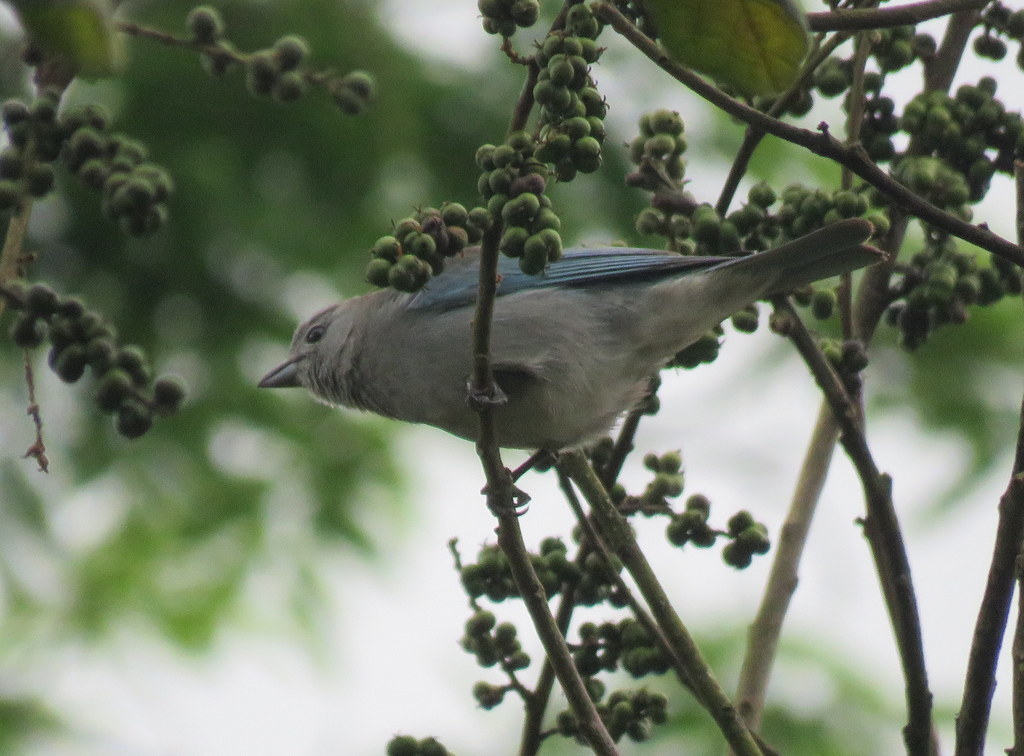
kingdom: Animalia
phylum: Chordata
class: Aves
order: Passeriformes
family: Thraupidae
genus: Thraupis
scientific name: Thraupis sayaca
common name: Sayaca tanager
